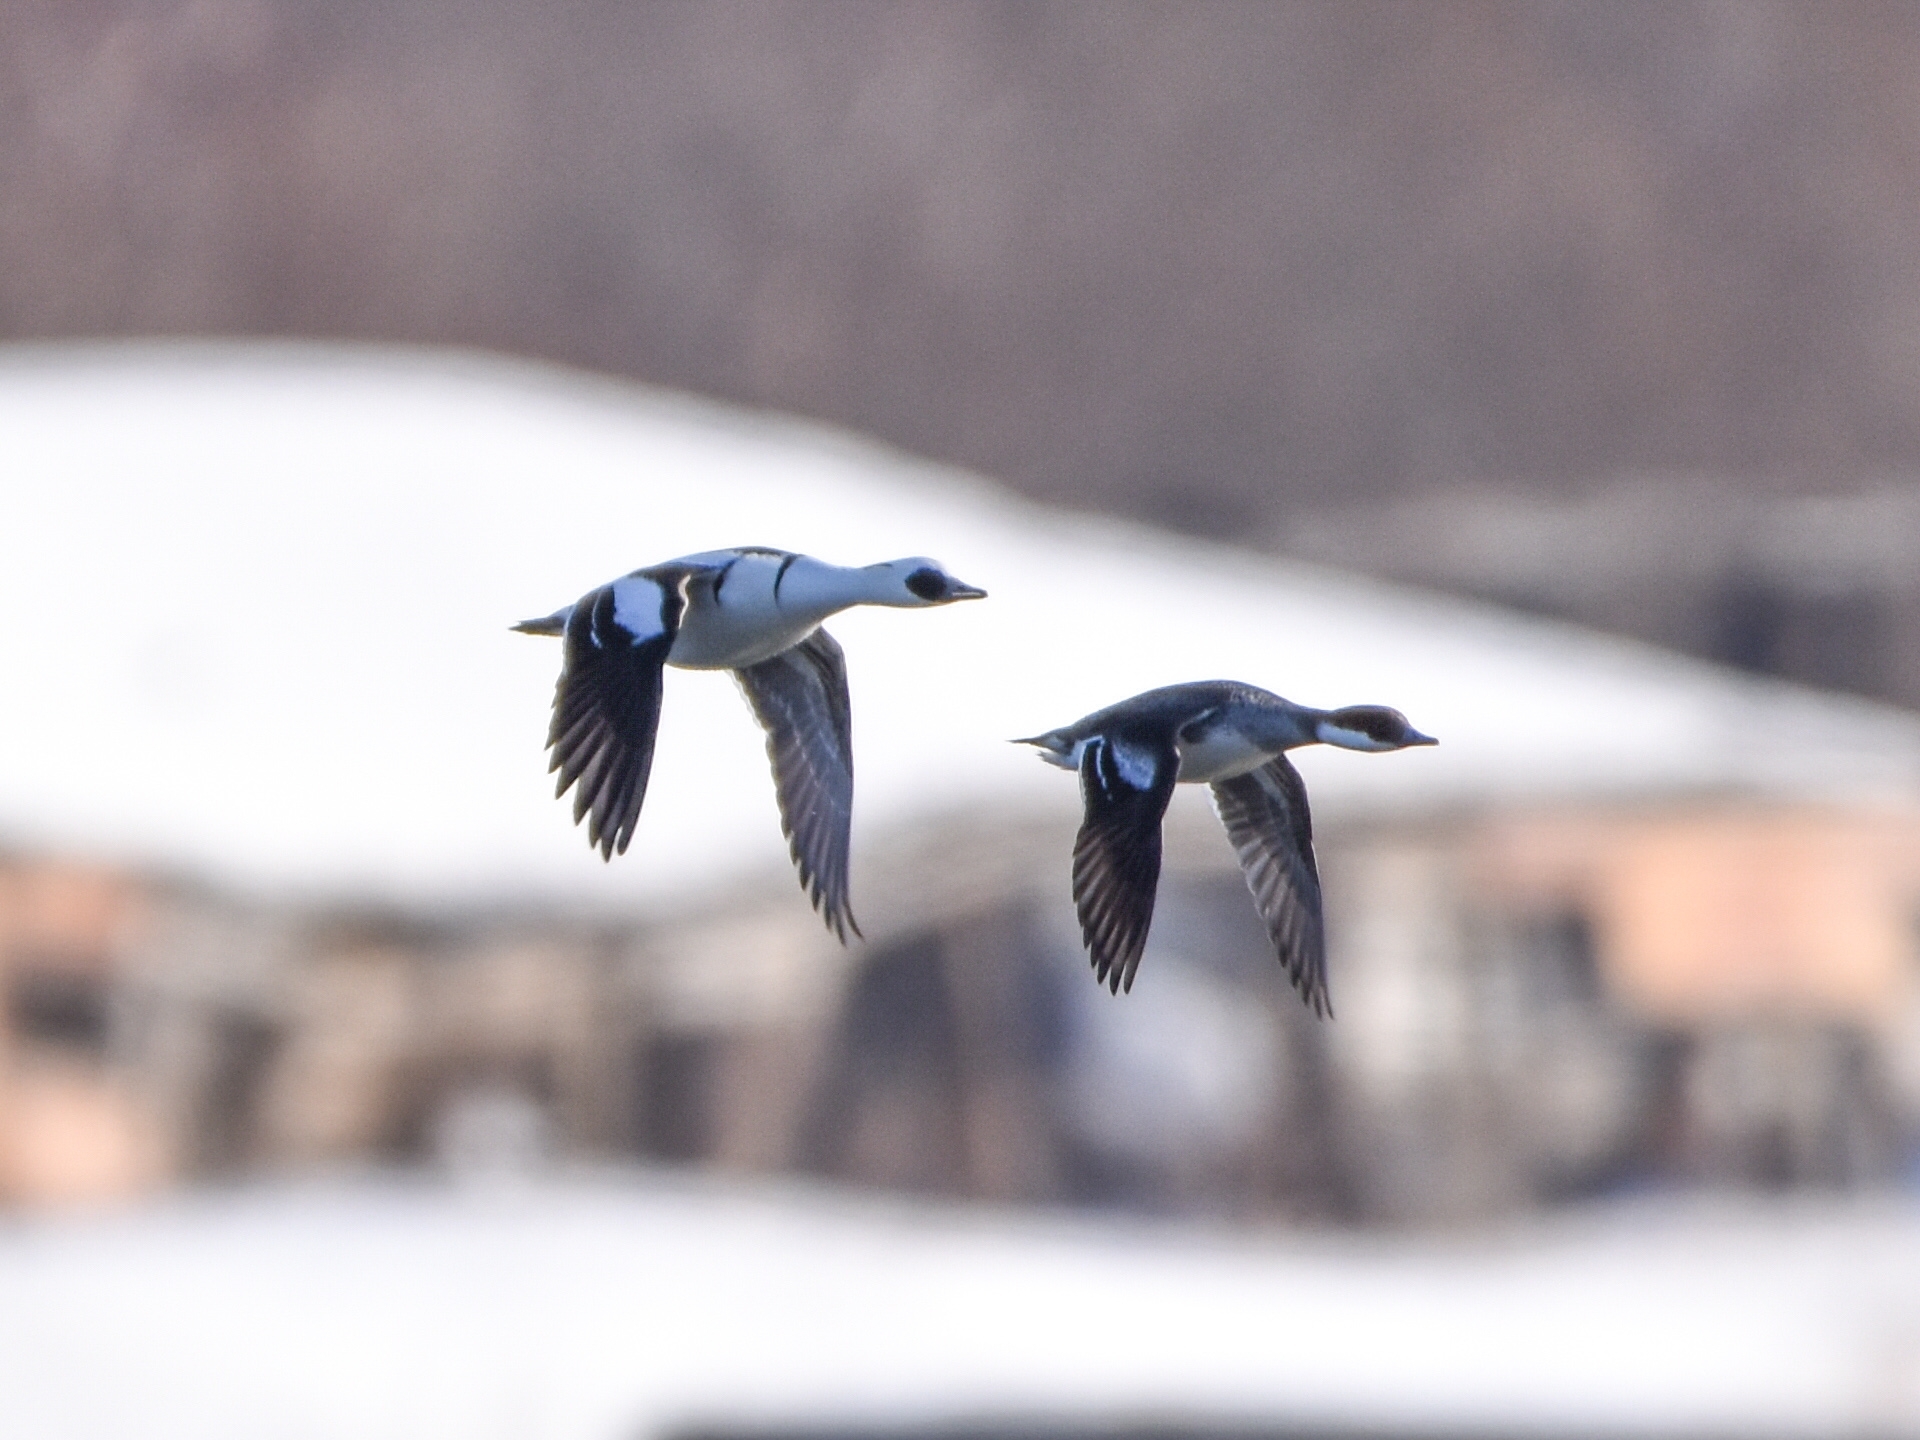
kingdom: Animalia
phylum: Chordata
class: Aves
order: Anseriformes
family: Anatidae
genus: Mergellus
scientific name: Mergellus albellus
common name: Smew
